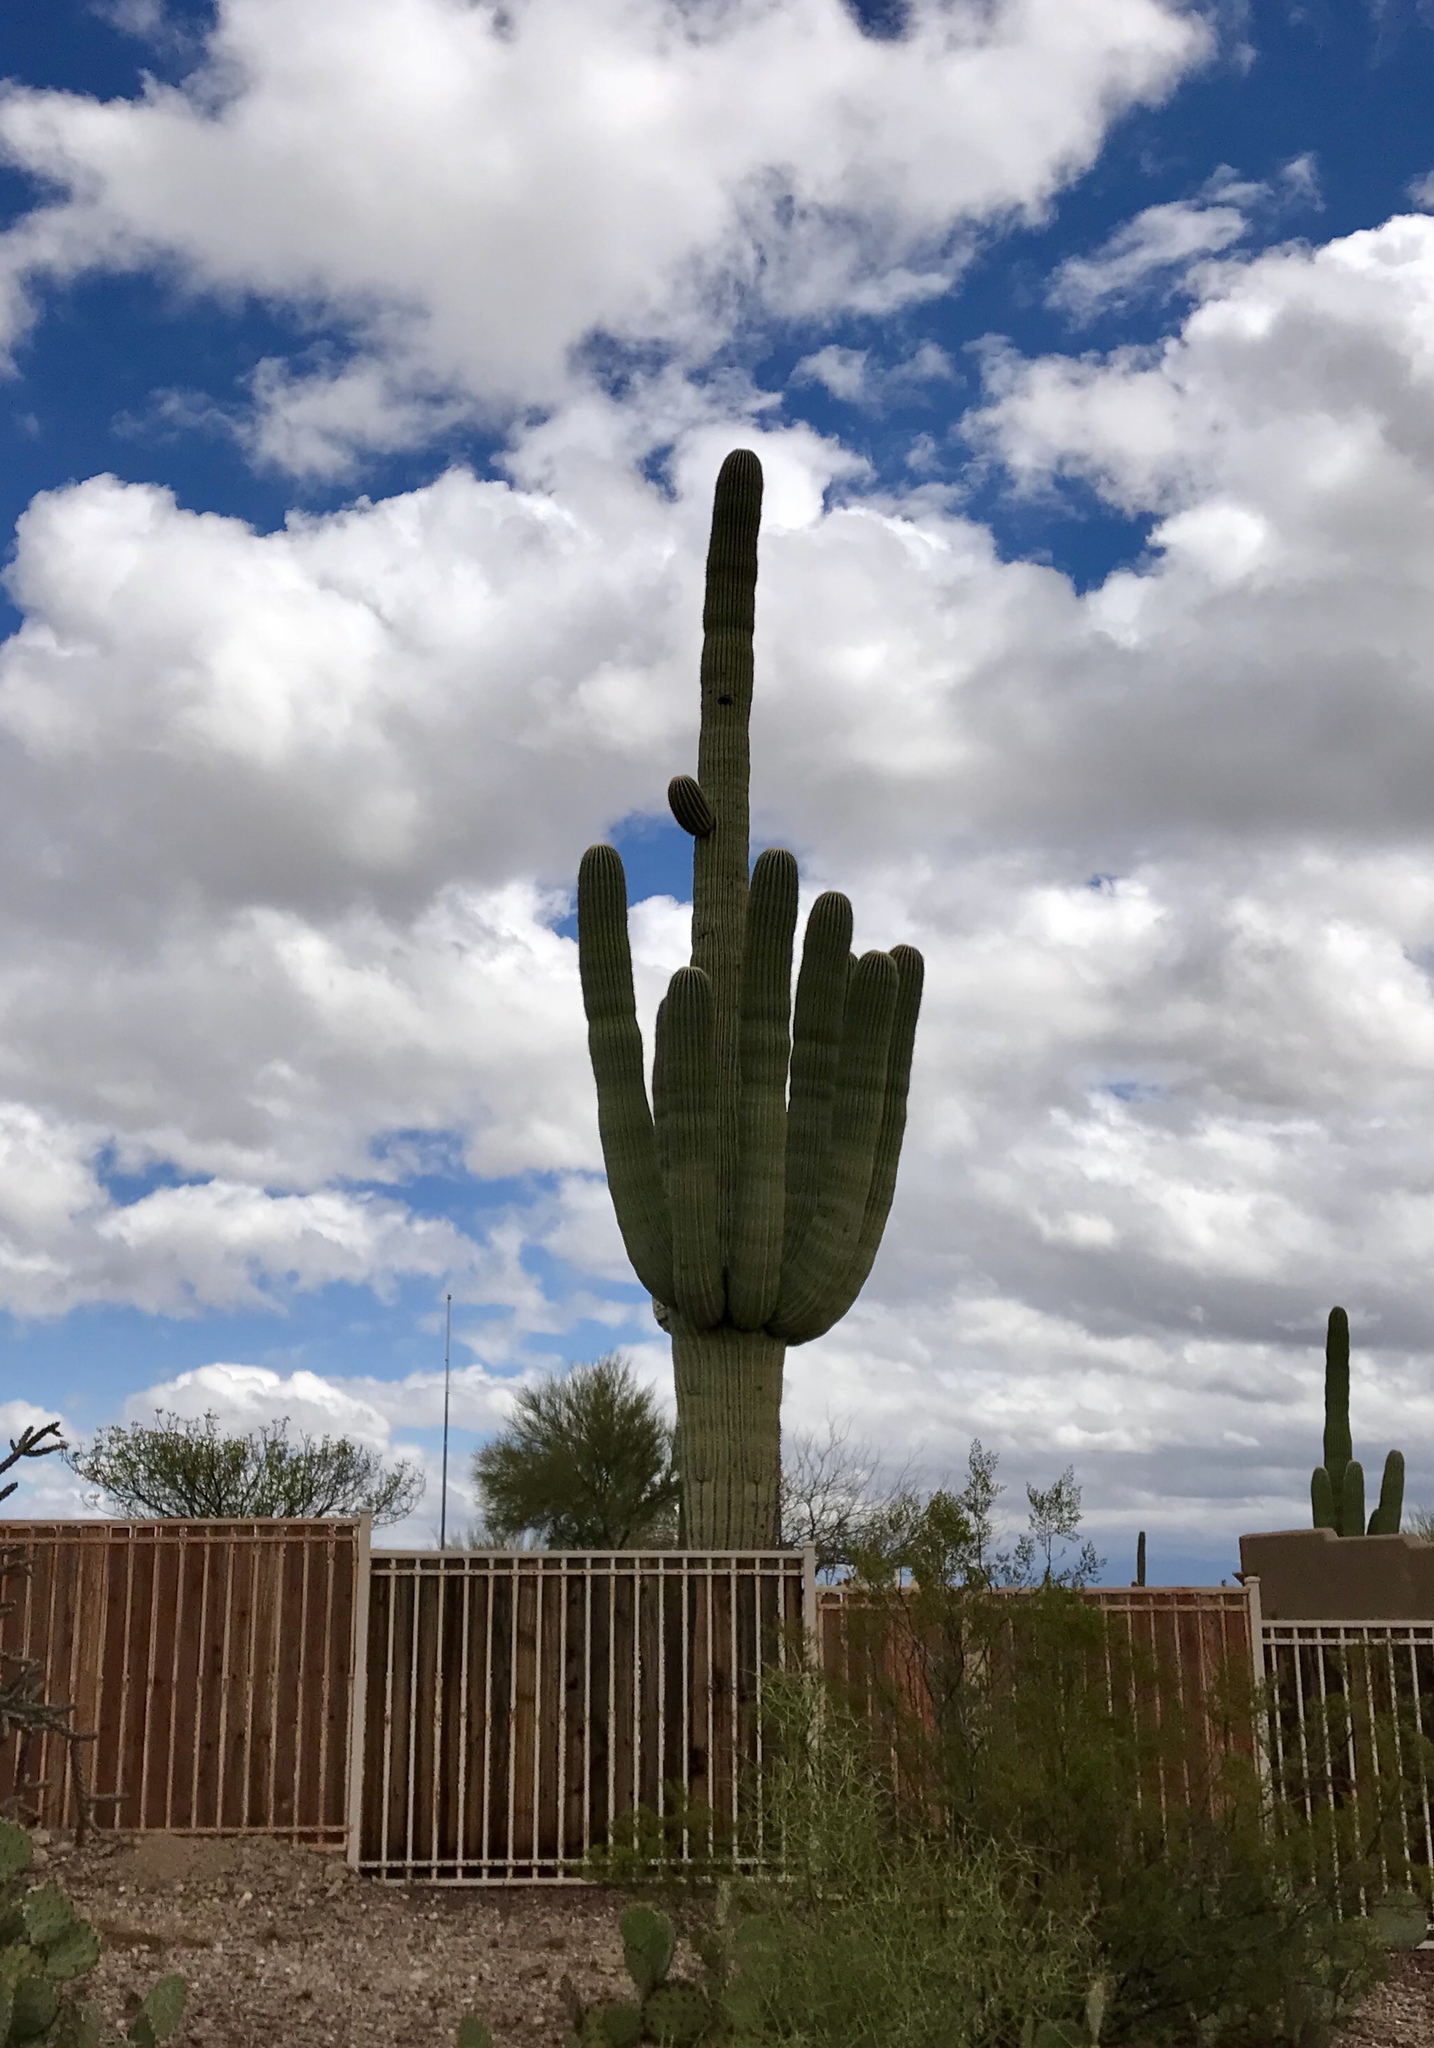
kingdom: Plantae
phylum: Tracheophyta
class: Magnoliopsida
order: Caryophyllales
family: Cactaceae
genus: Carnegiea
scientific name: Carnegiea gigantea
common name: Saguaro
